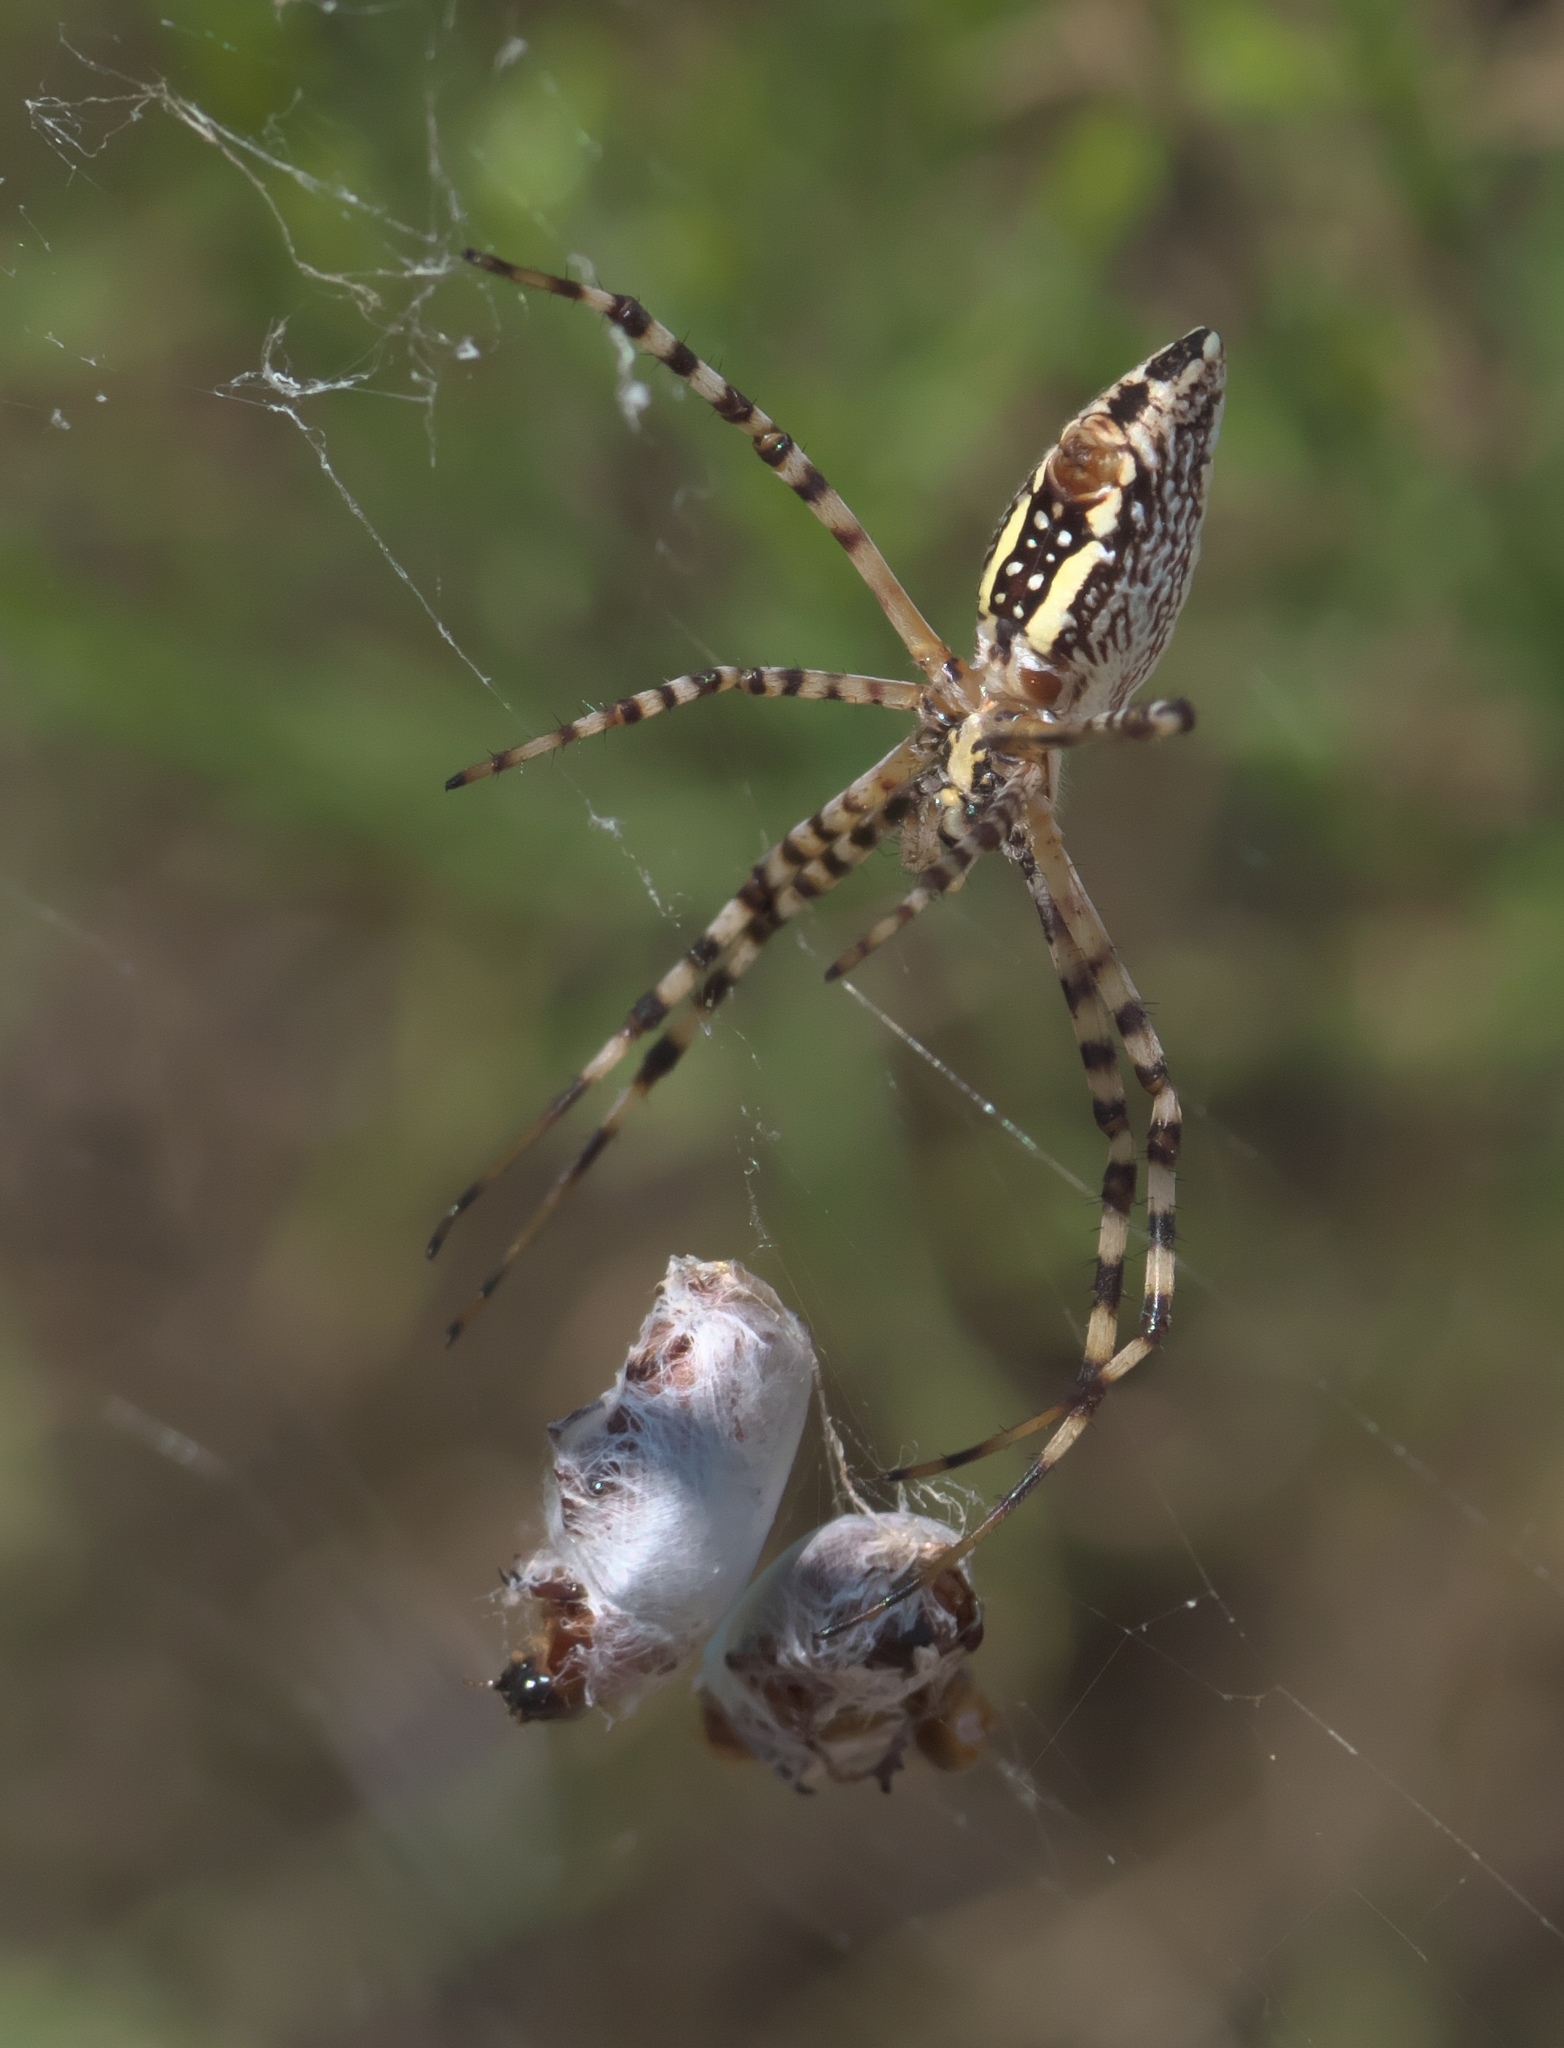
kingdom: Animalia
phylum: Arthropoda
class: Arachnida
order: Araneae
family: Araneidae
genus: Argiope
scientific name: Argiope trifasciata
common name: Banded garden spider
